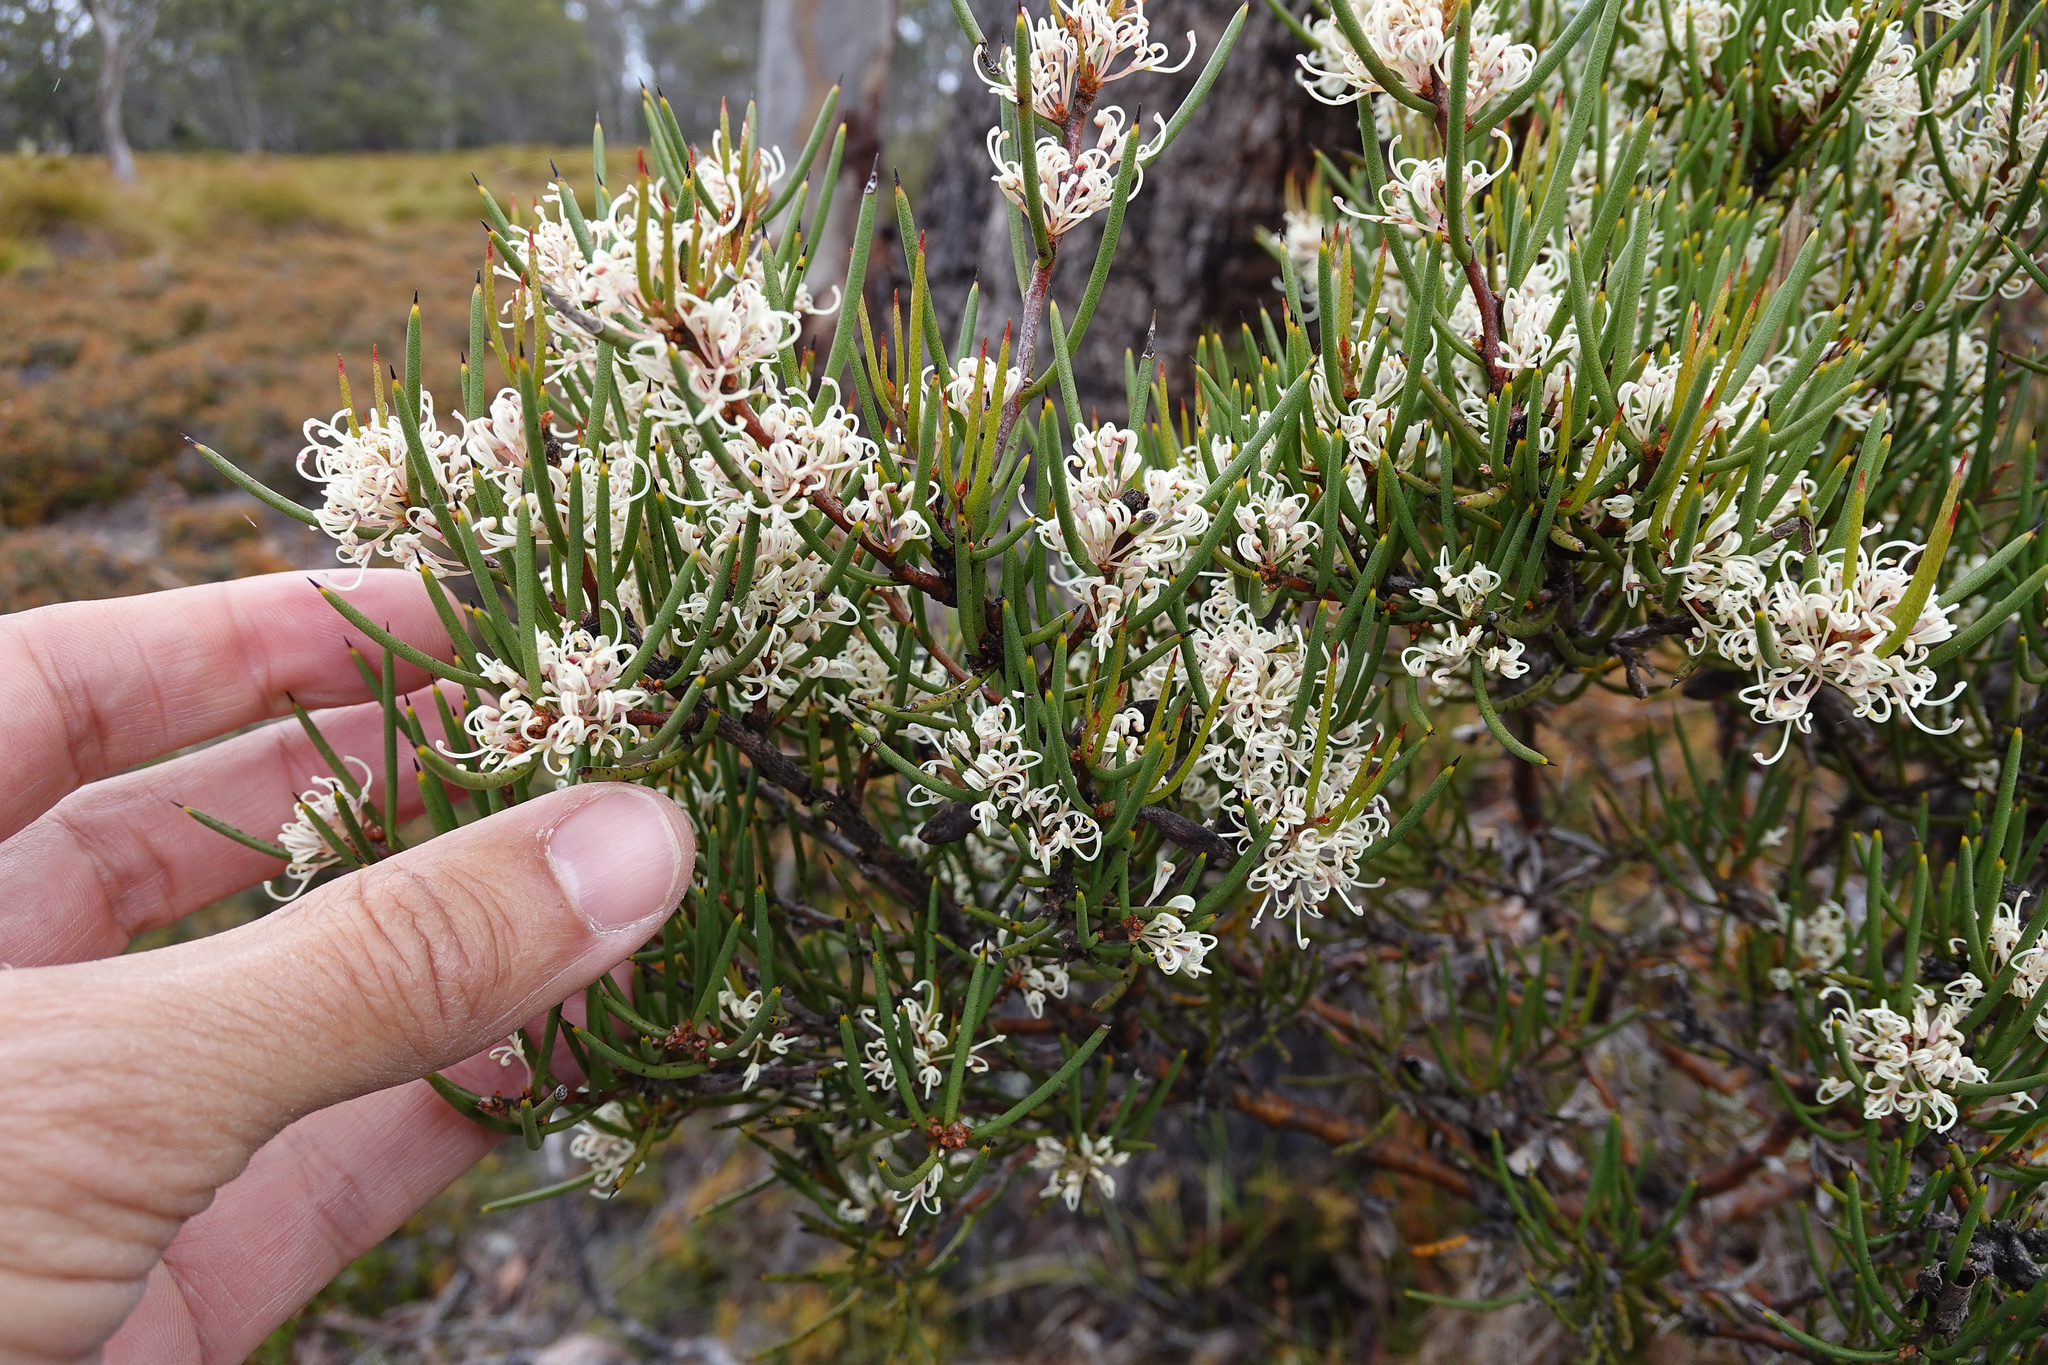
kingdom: Plantae
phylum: Tracheophyta
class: Magnoliopsida
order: Proteales
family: Proteaceae
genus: Hakea
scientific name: Hakea microcarpa
